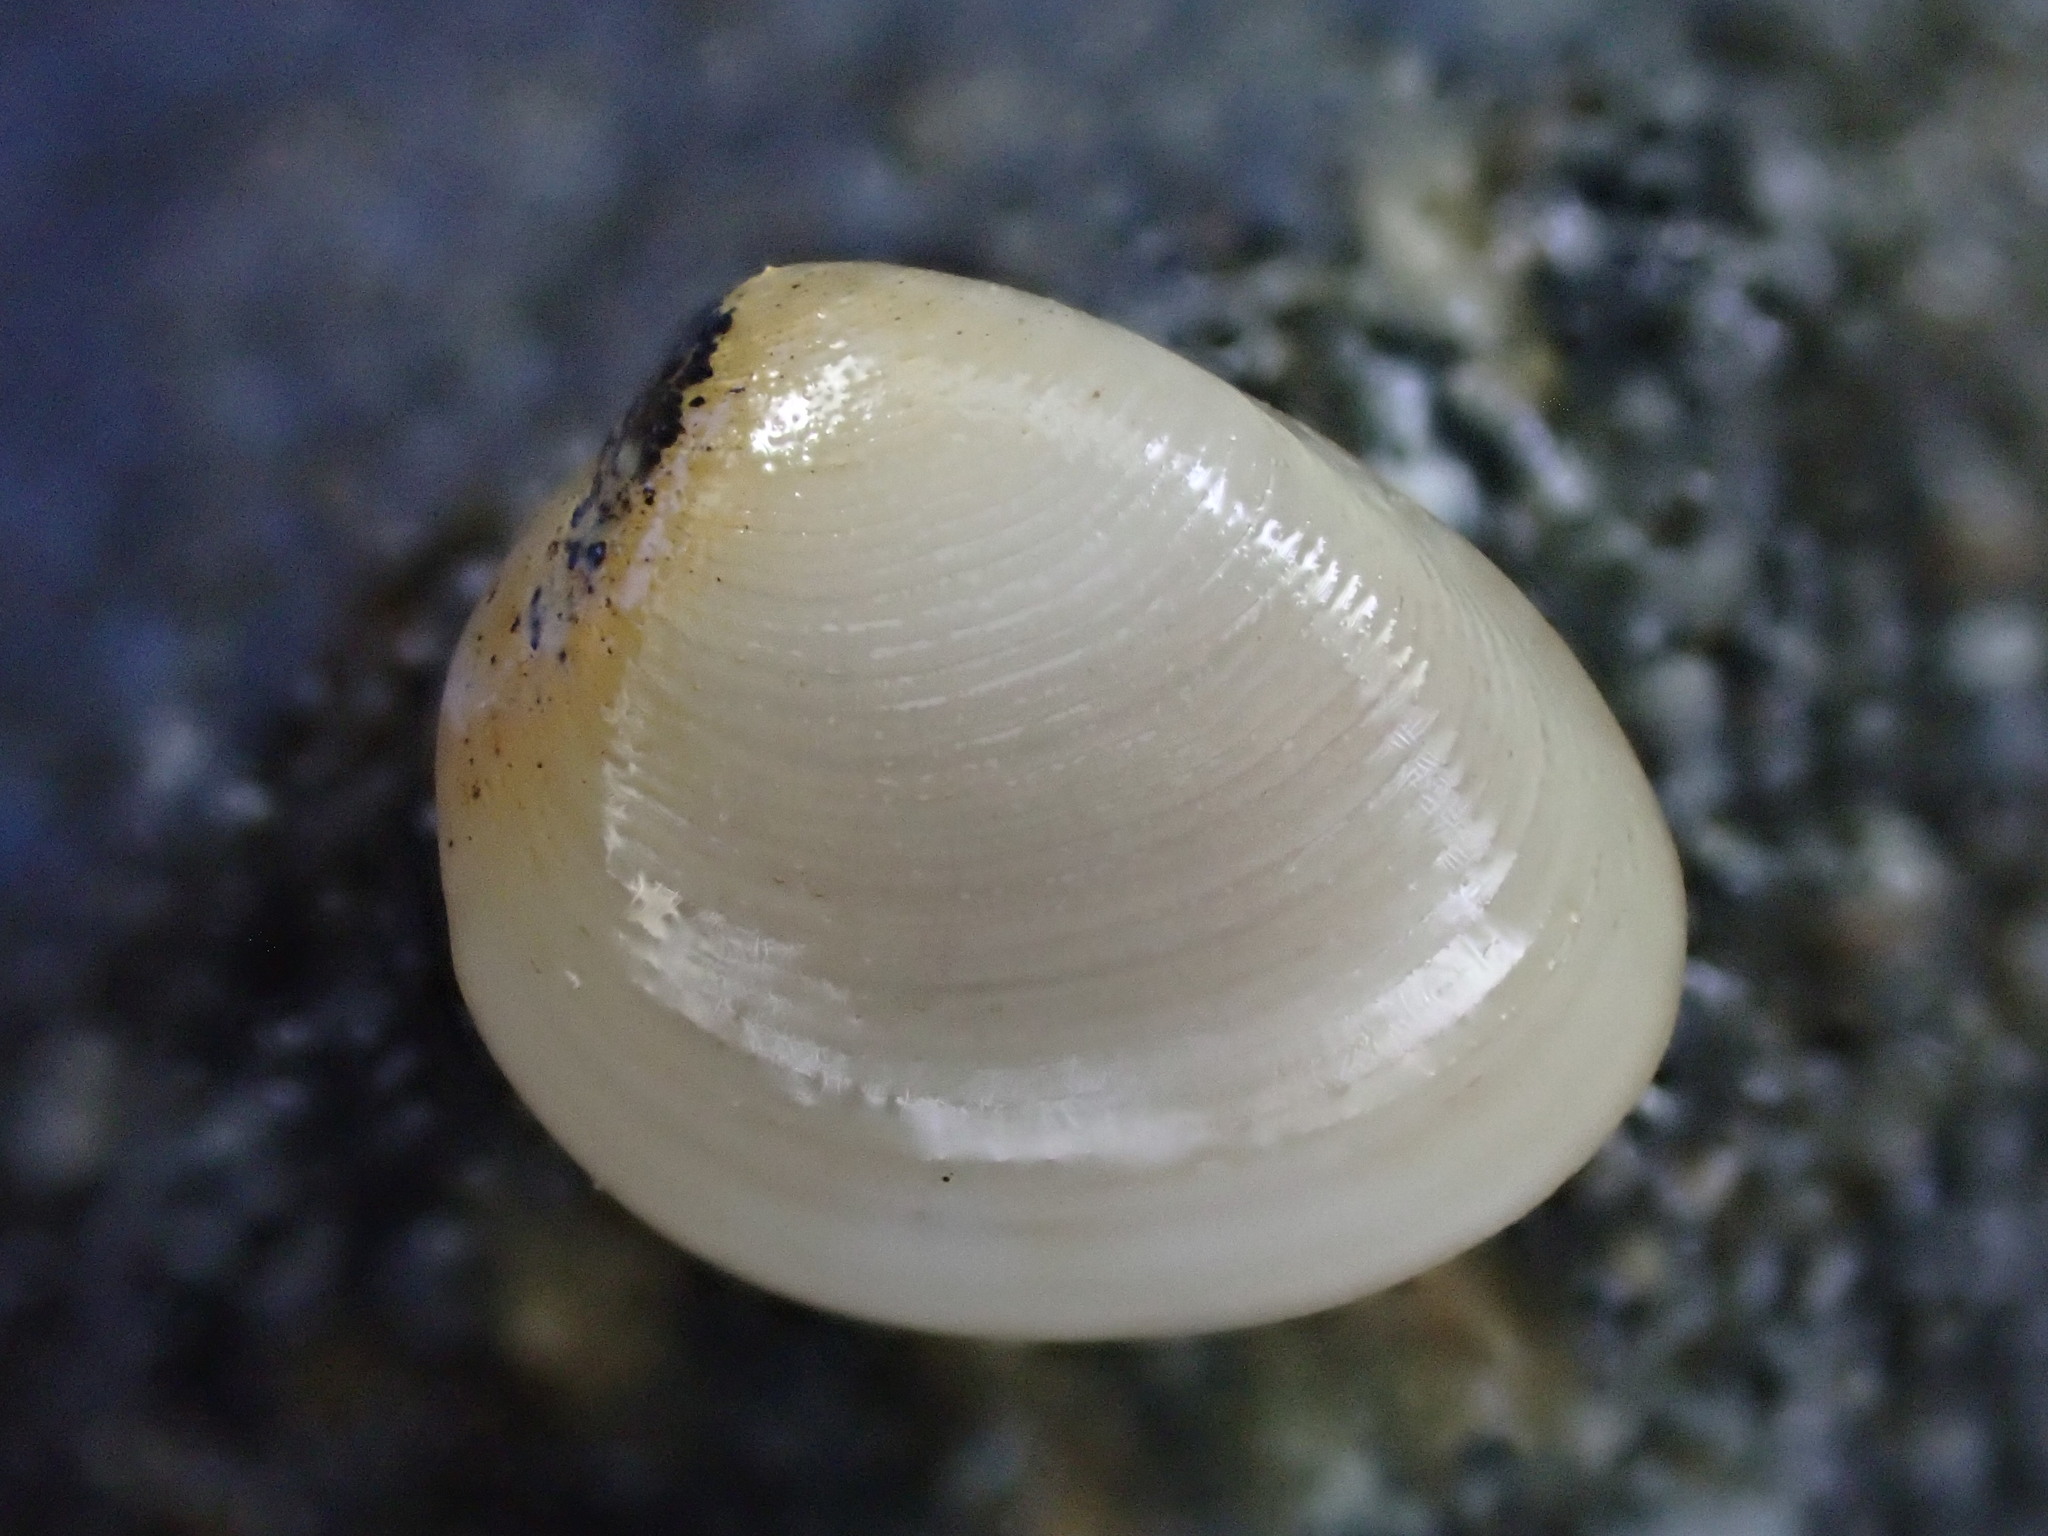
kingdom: Animalia
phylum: Mollusca
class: Bivalvia
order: Nuculida
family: Nuculidae
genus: Linucula
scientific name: Linucula hartvigiana
